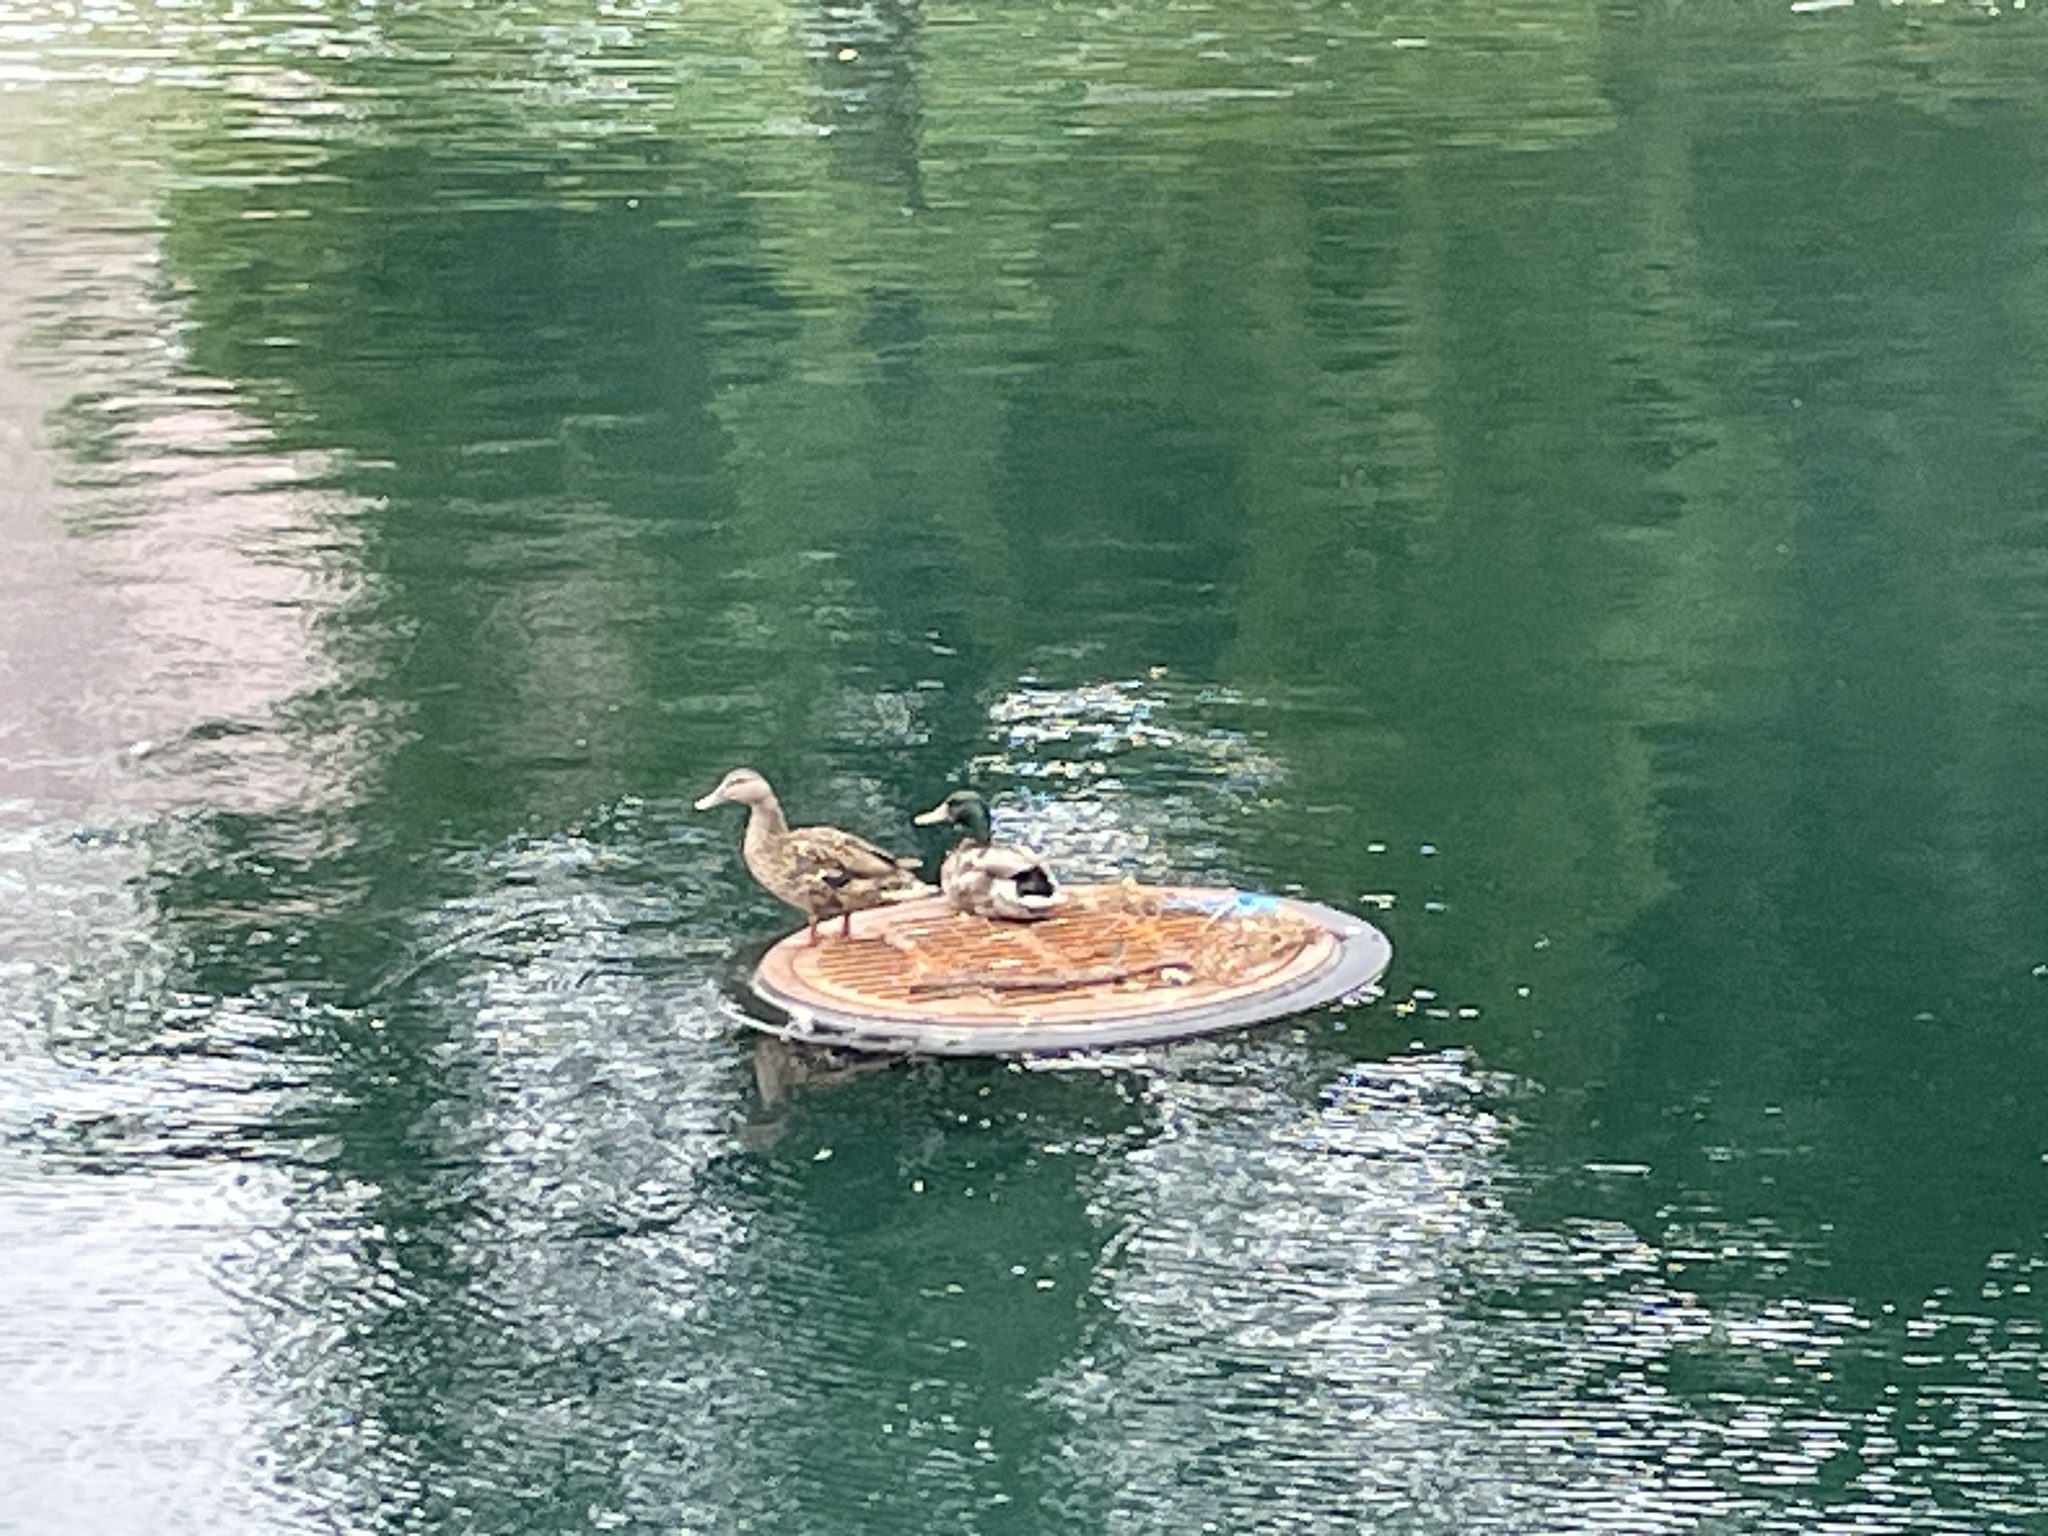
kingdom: Animalia
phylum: Chordata
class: Aves
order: Anseriformes
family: Anatidae
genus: Anas
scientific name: Anas platyrhynchos
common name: Mallard
